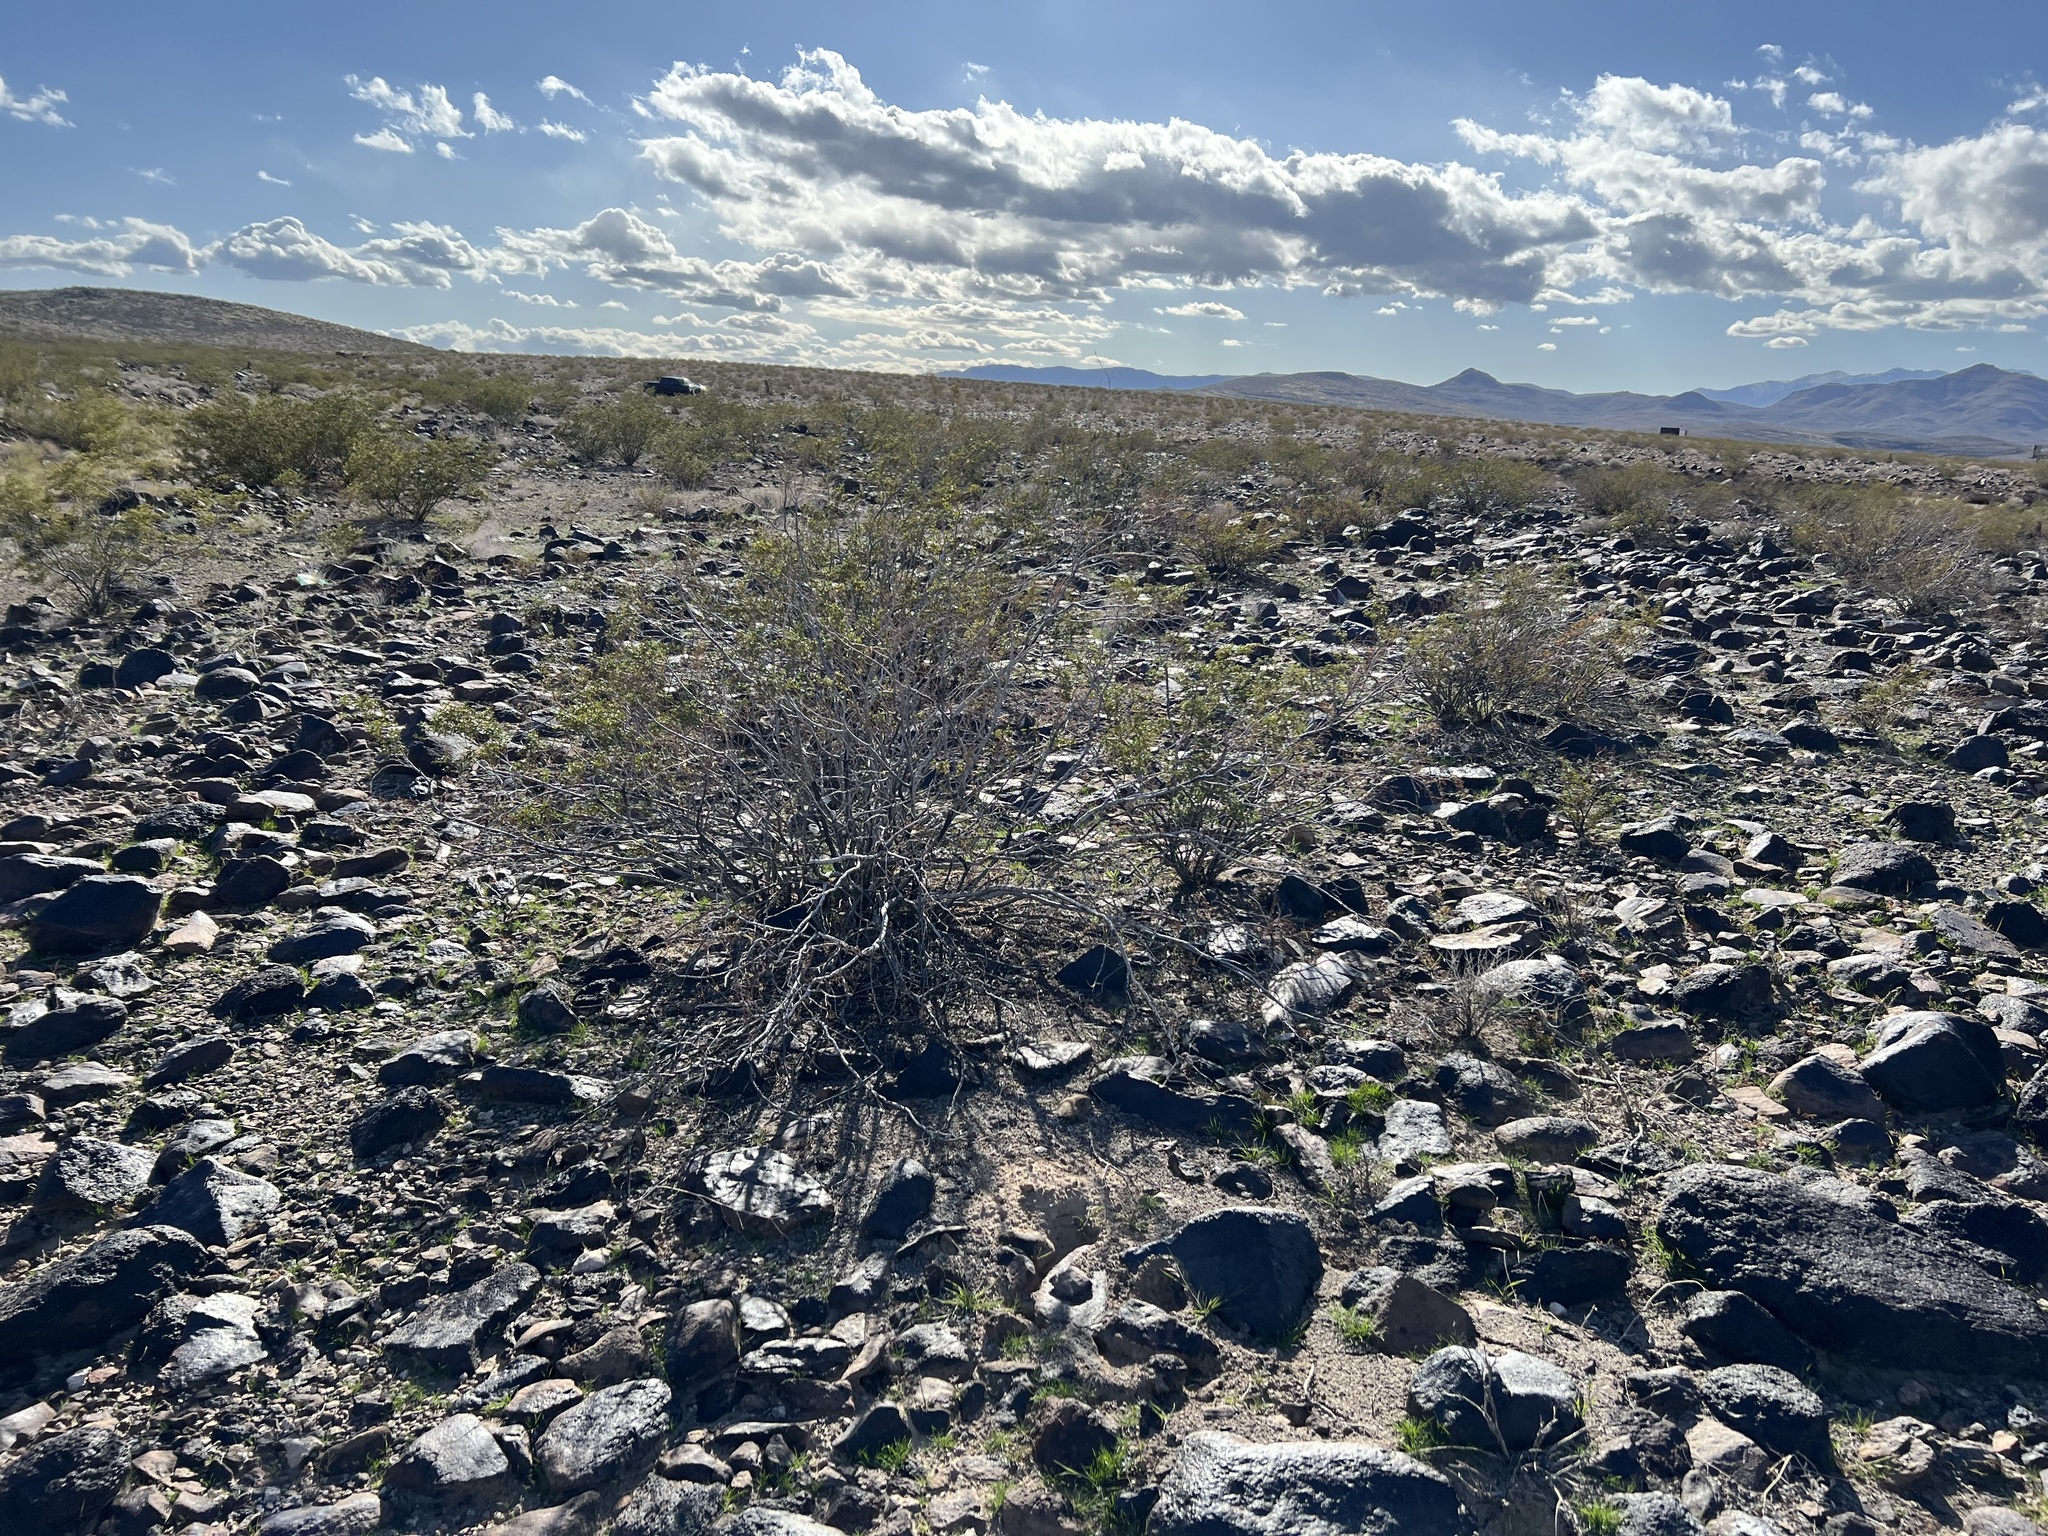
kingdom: Plantae
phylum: Tracheophyta
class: Magnoliopsida
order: Zygophyllales
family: Zygophyllaceae
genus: Larrea
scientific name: Larrea tridentata
